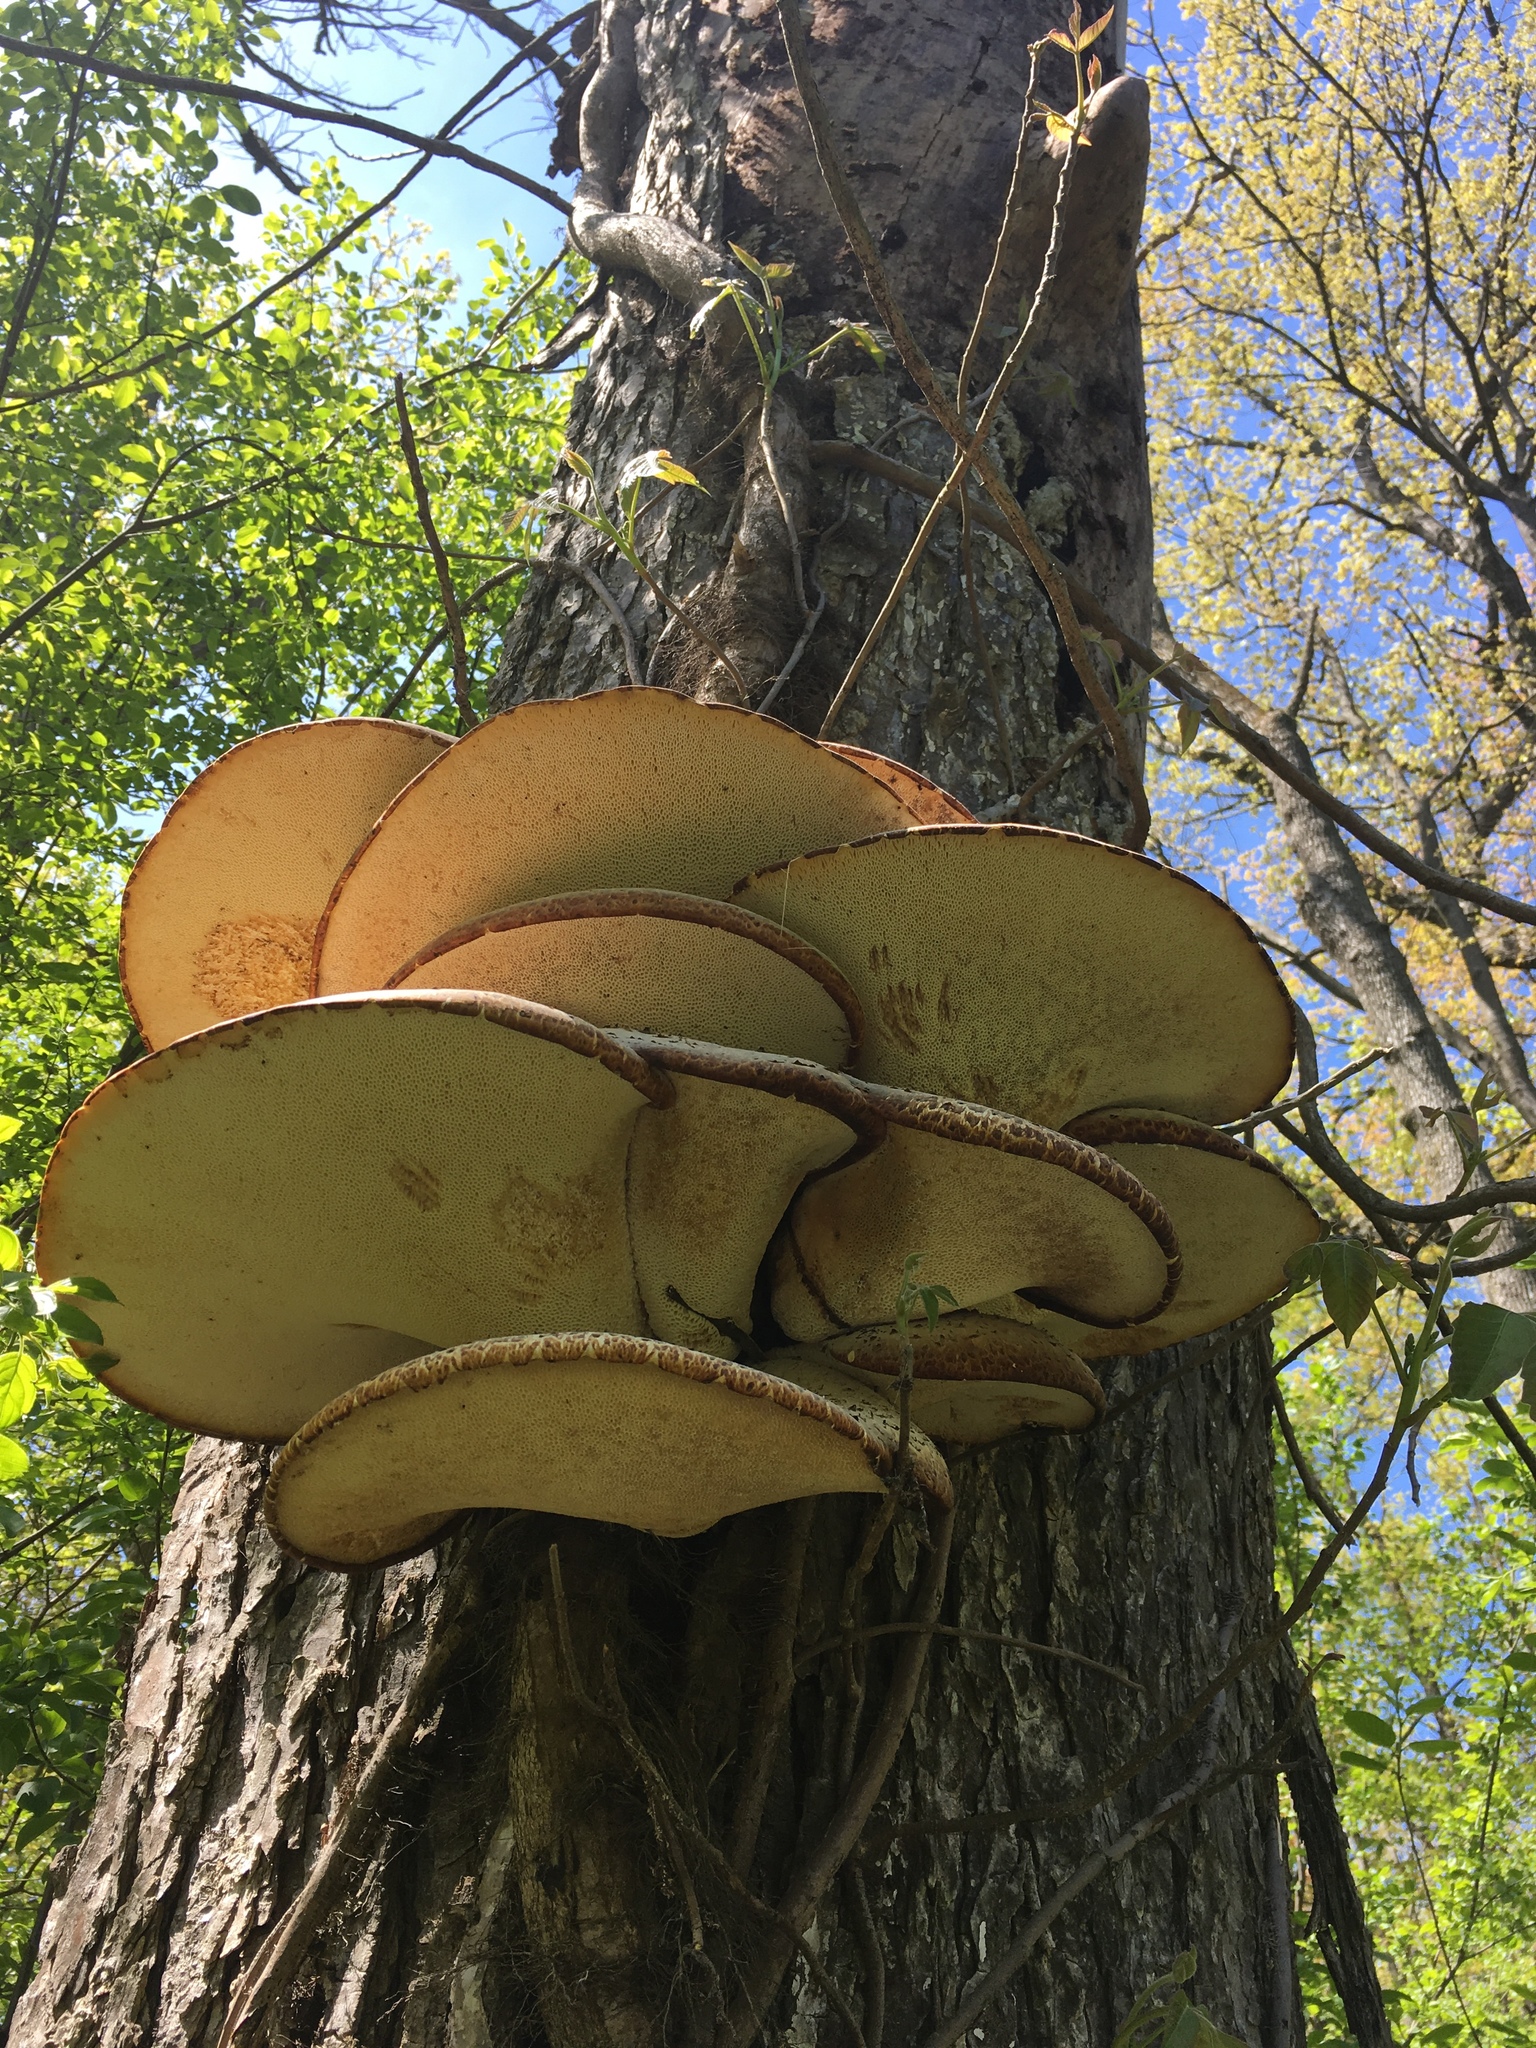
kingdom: Fungi
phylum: Basidiomycota
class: Agaricomycetes
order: Polyporales
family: Polyporaceae
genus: Cerioporus
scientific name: Cerioporus squamosus
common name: Dryad's saddle
